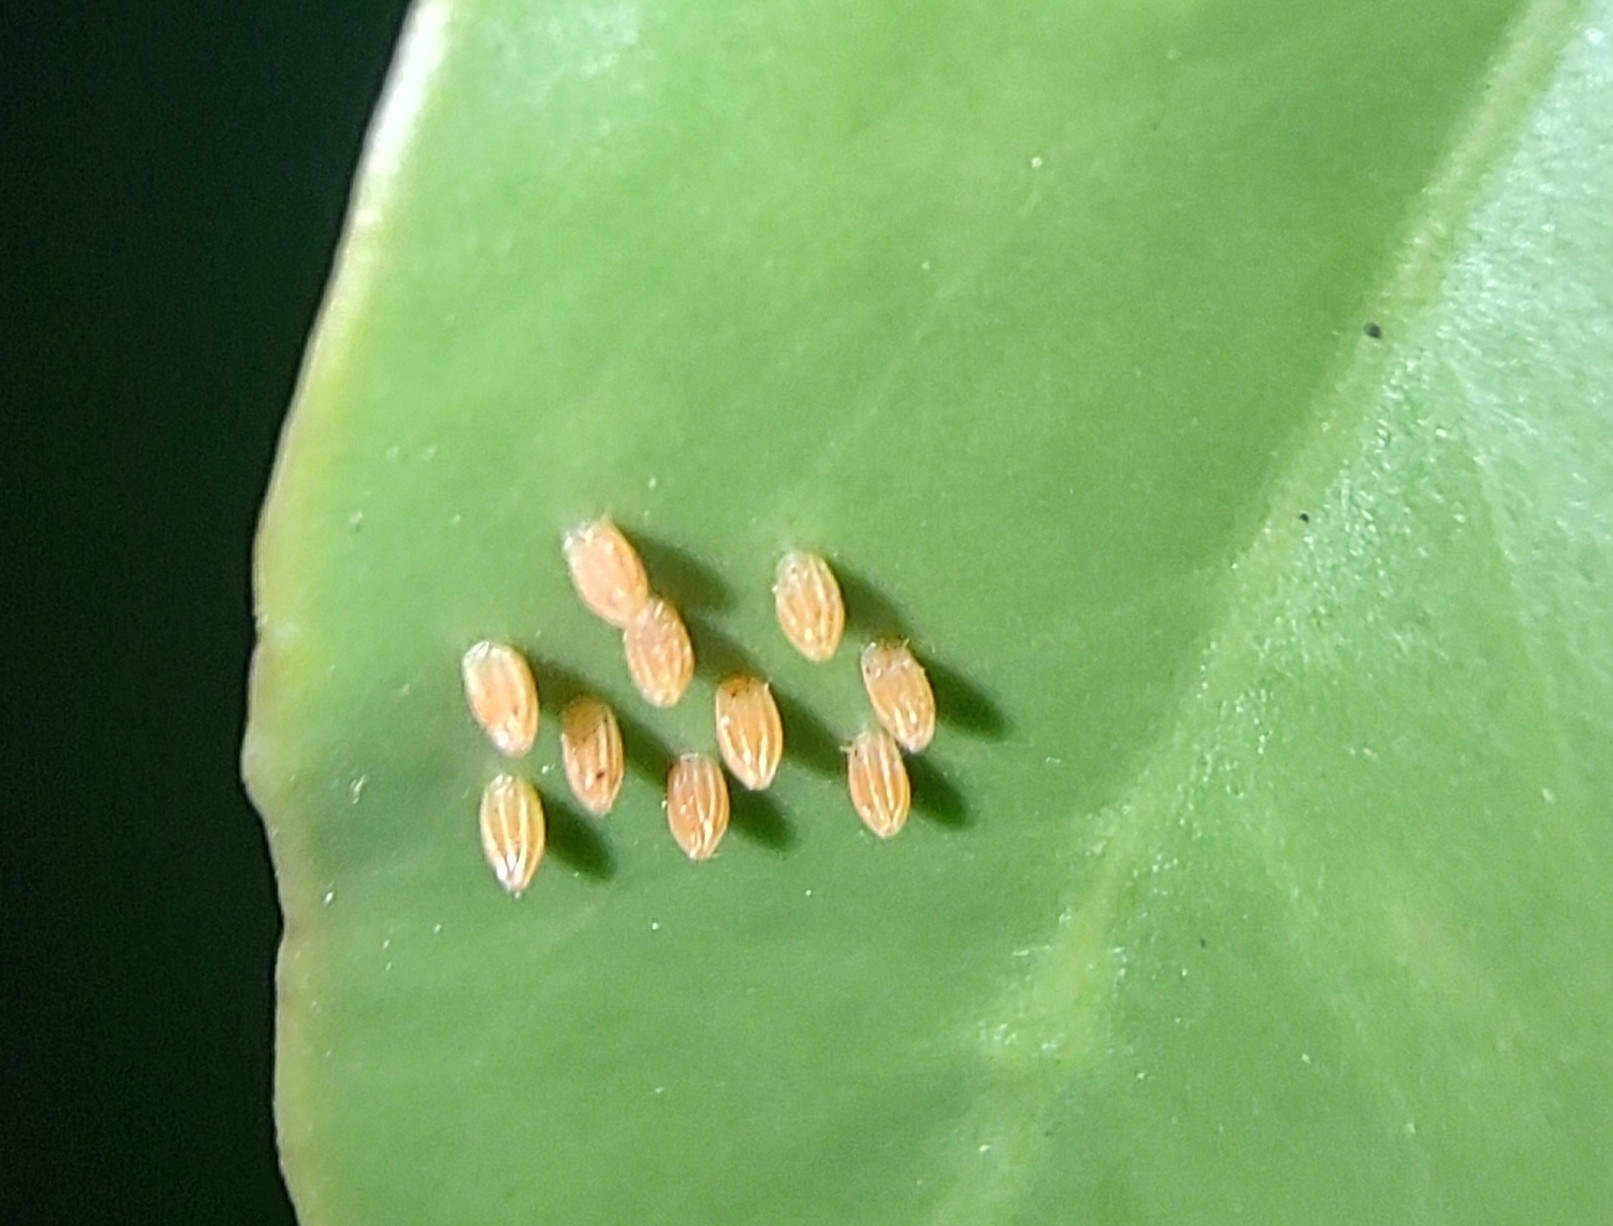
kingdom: Animalia
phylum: Arthropoda
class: Insecta
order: Lepidoptera
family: Pieridae
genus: Hesperocharis
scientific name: Hesperocharis paranensis
